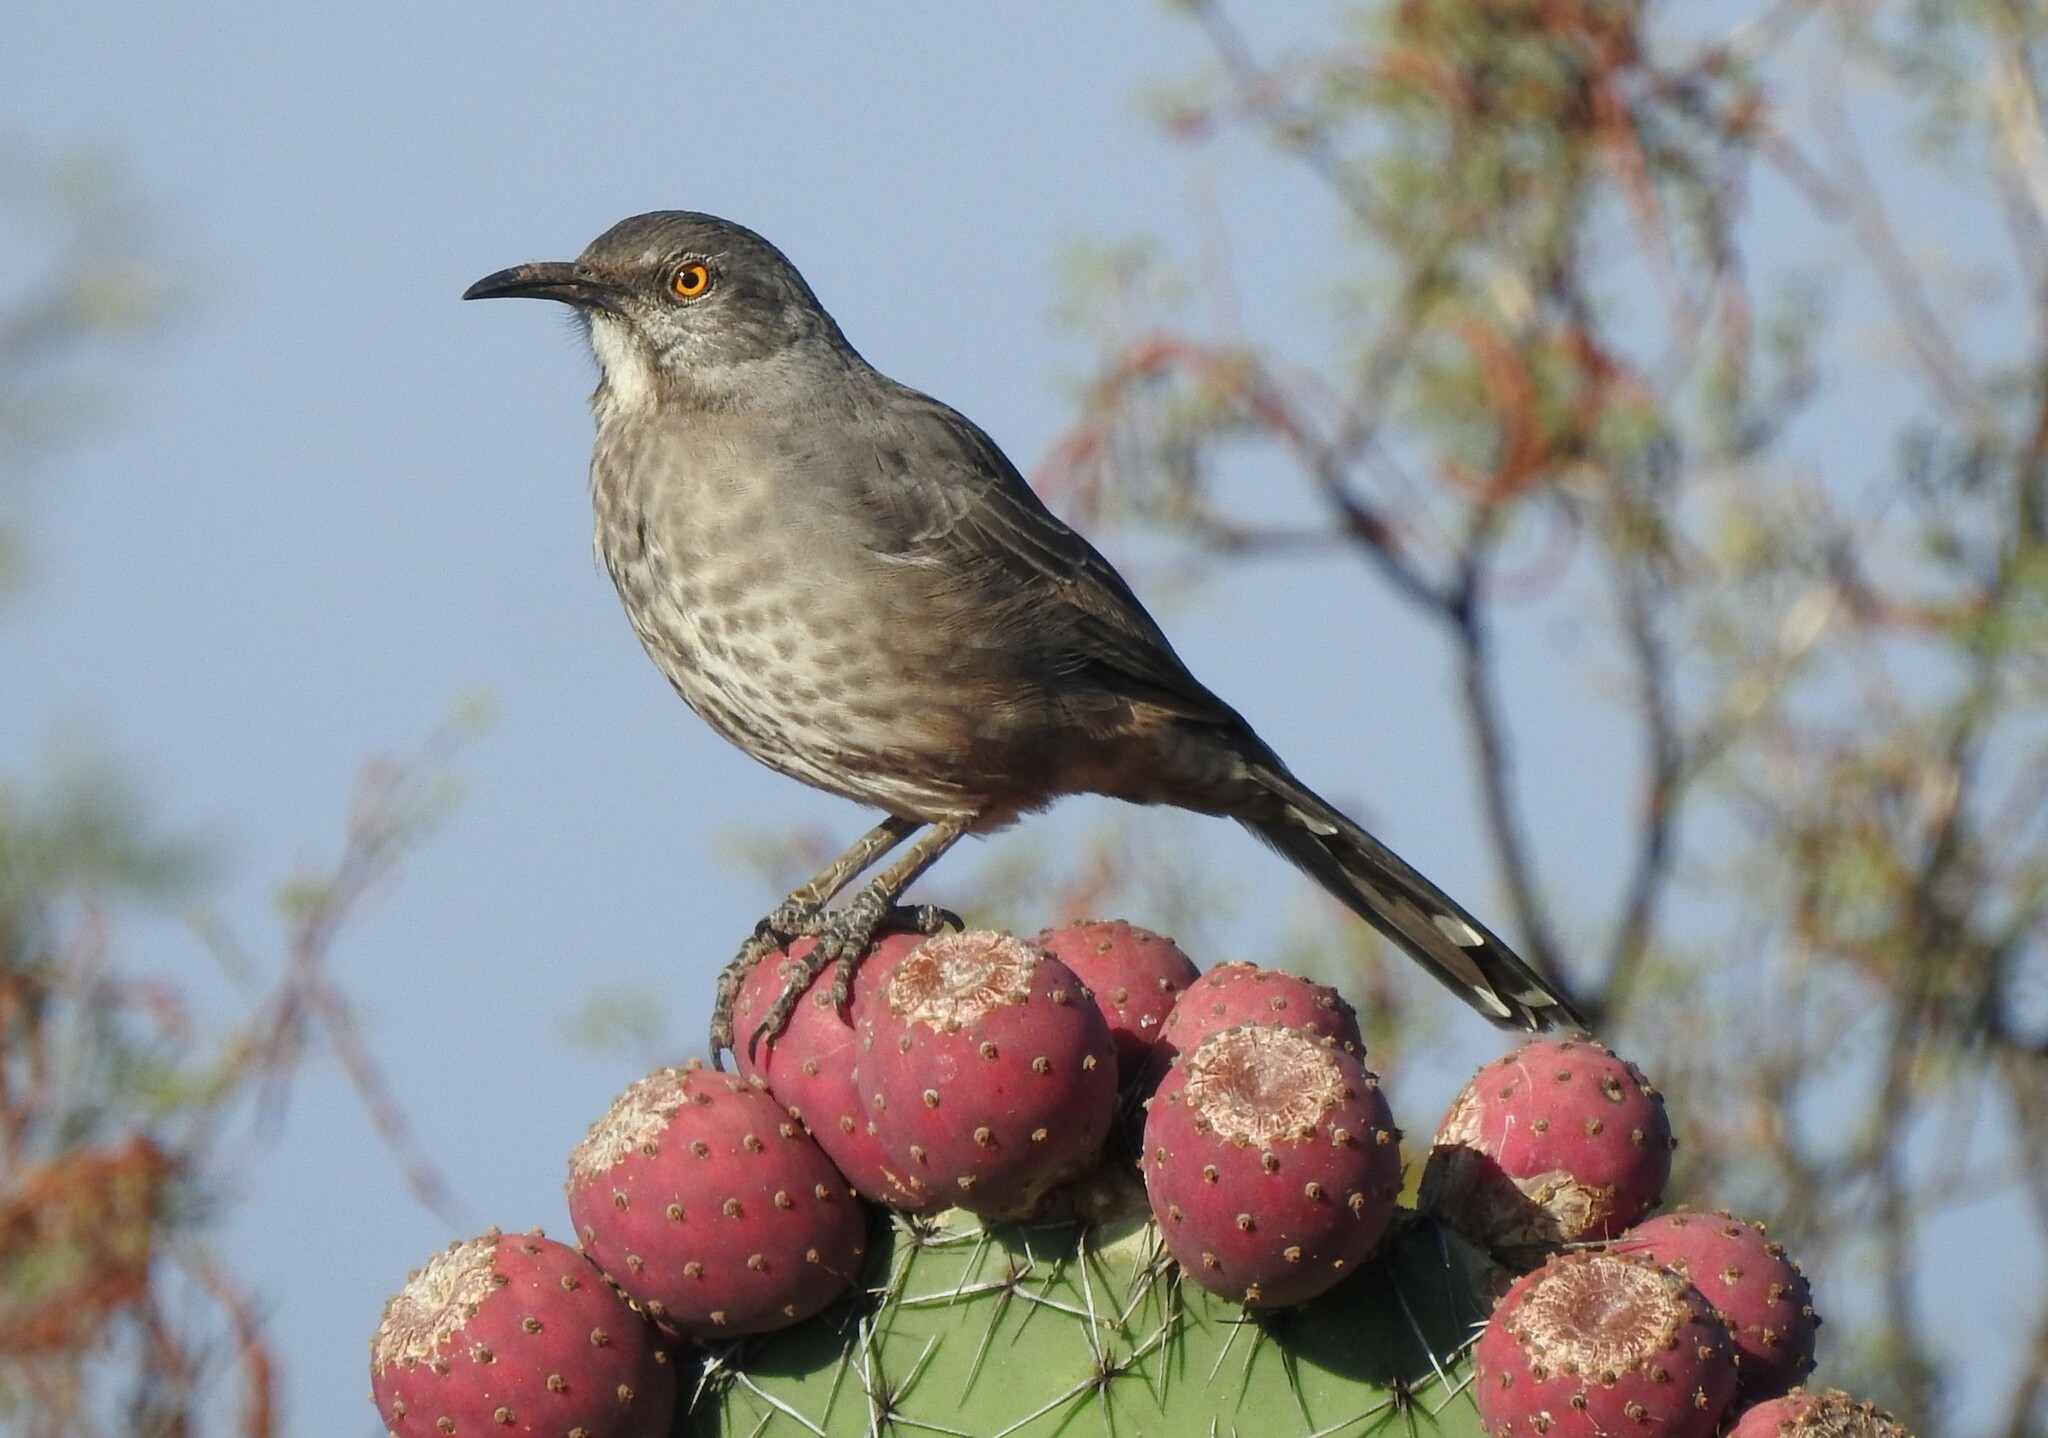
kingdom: Animalia
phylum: Chordata
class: Aves
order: Passeriformes
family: Mimidae
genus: Toxostoma
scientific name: Toxostoma curvirostre
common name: Curve-billed thrasher
